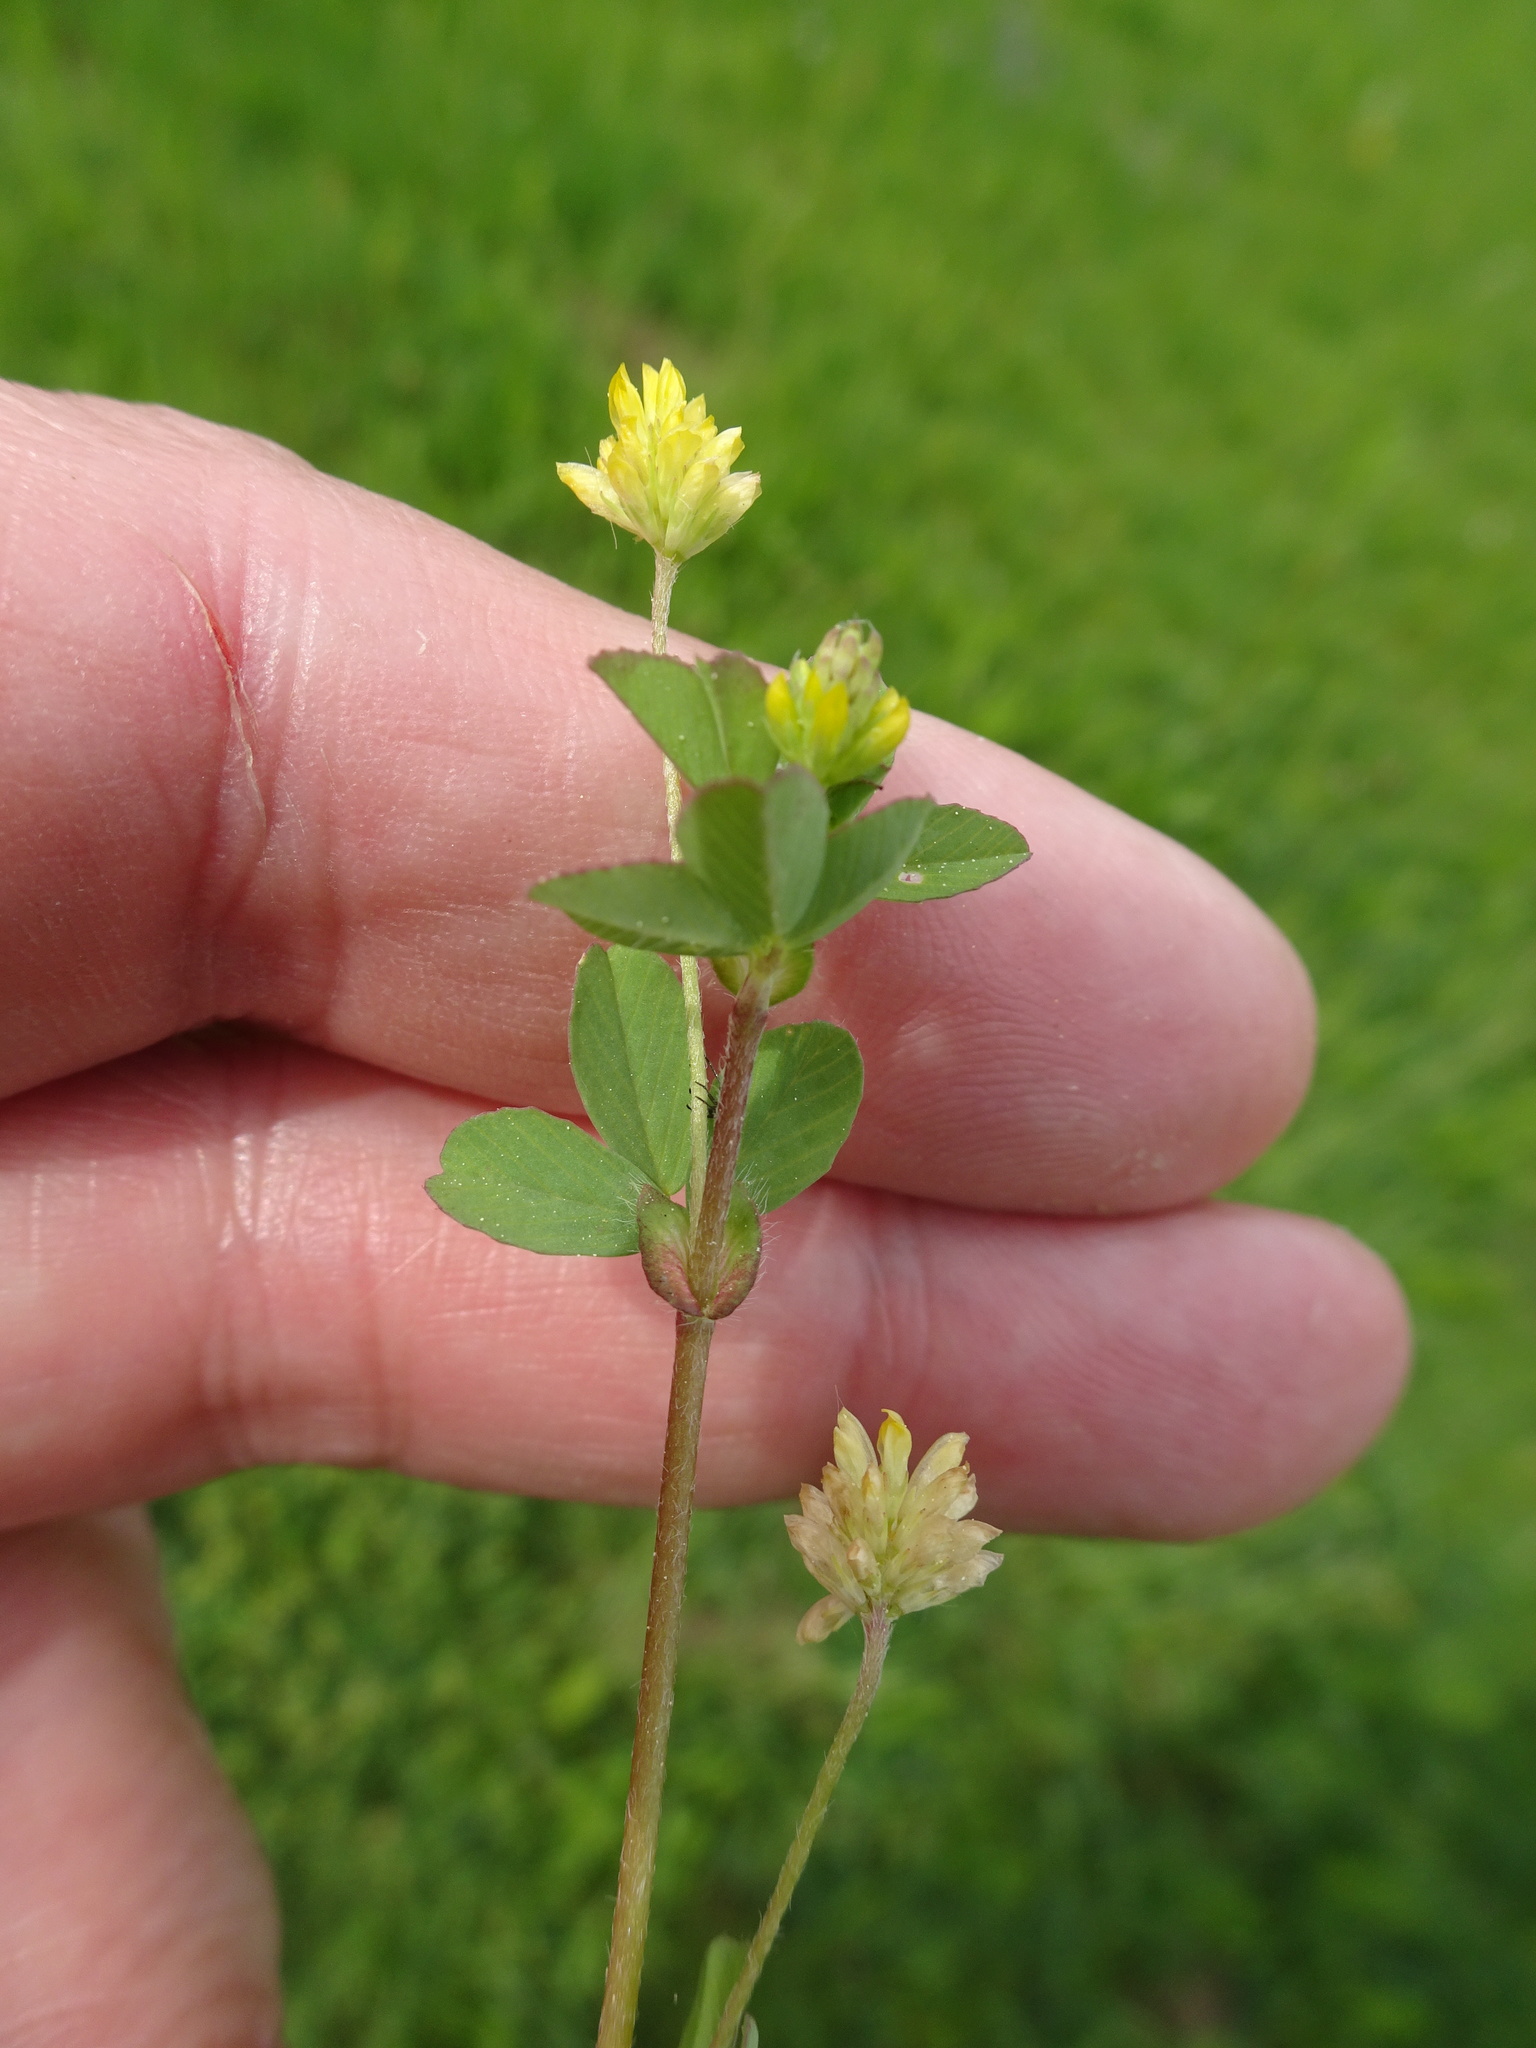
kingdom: Plantae
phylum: Tracheophyta
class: Magnoliopsida
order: Fabales
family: Fabaceae
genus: Trifolium
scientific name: Trifolium dubium
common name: Suckling clover
